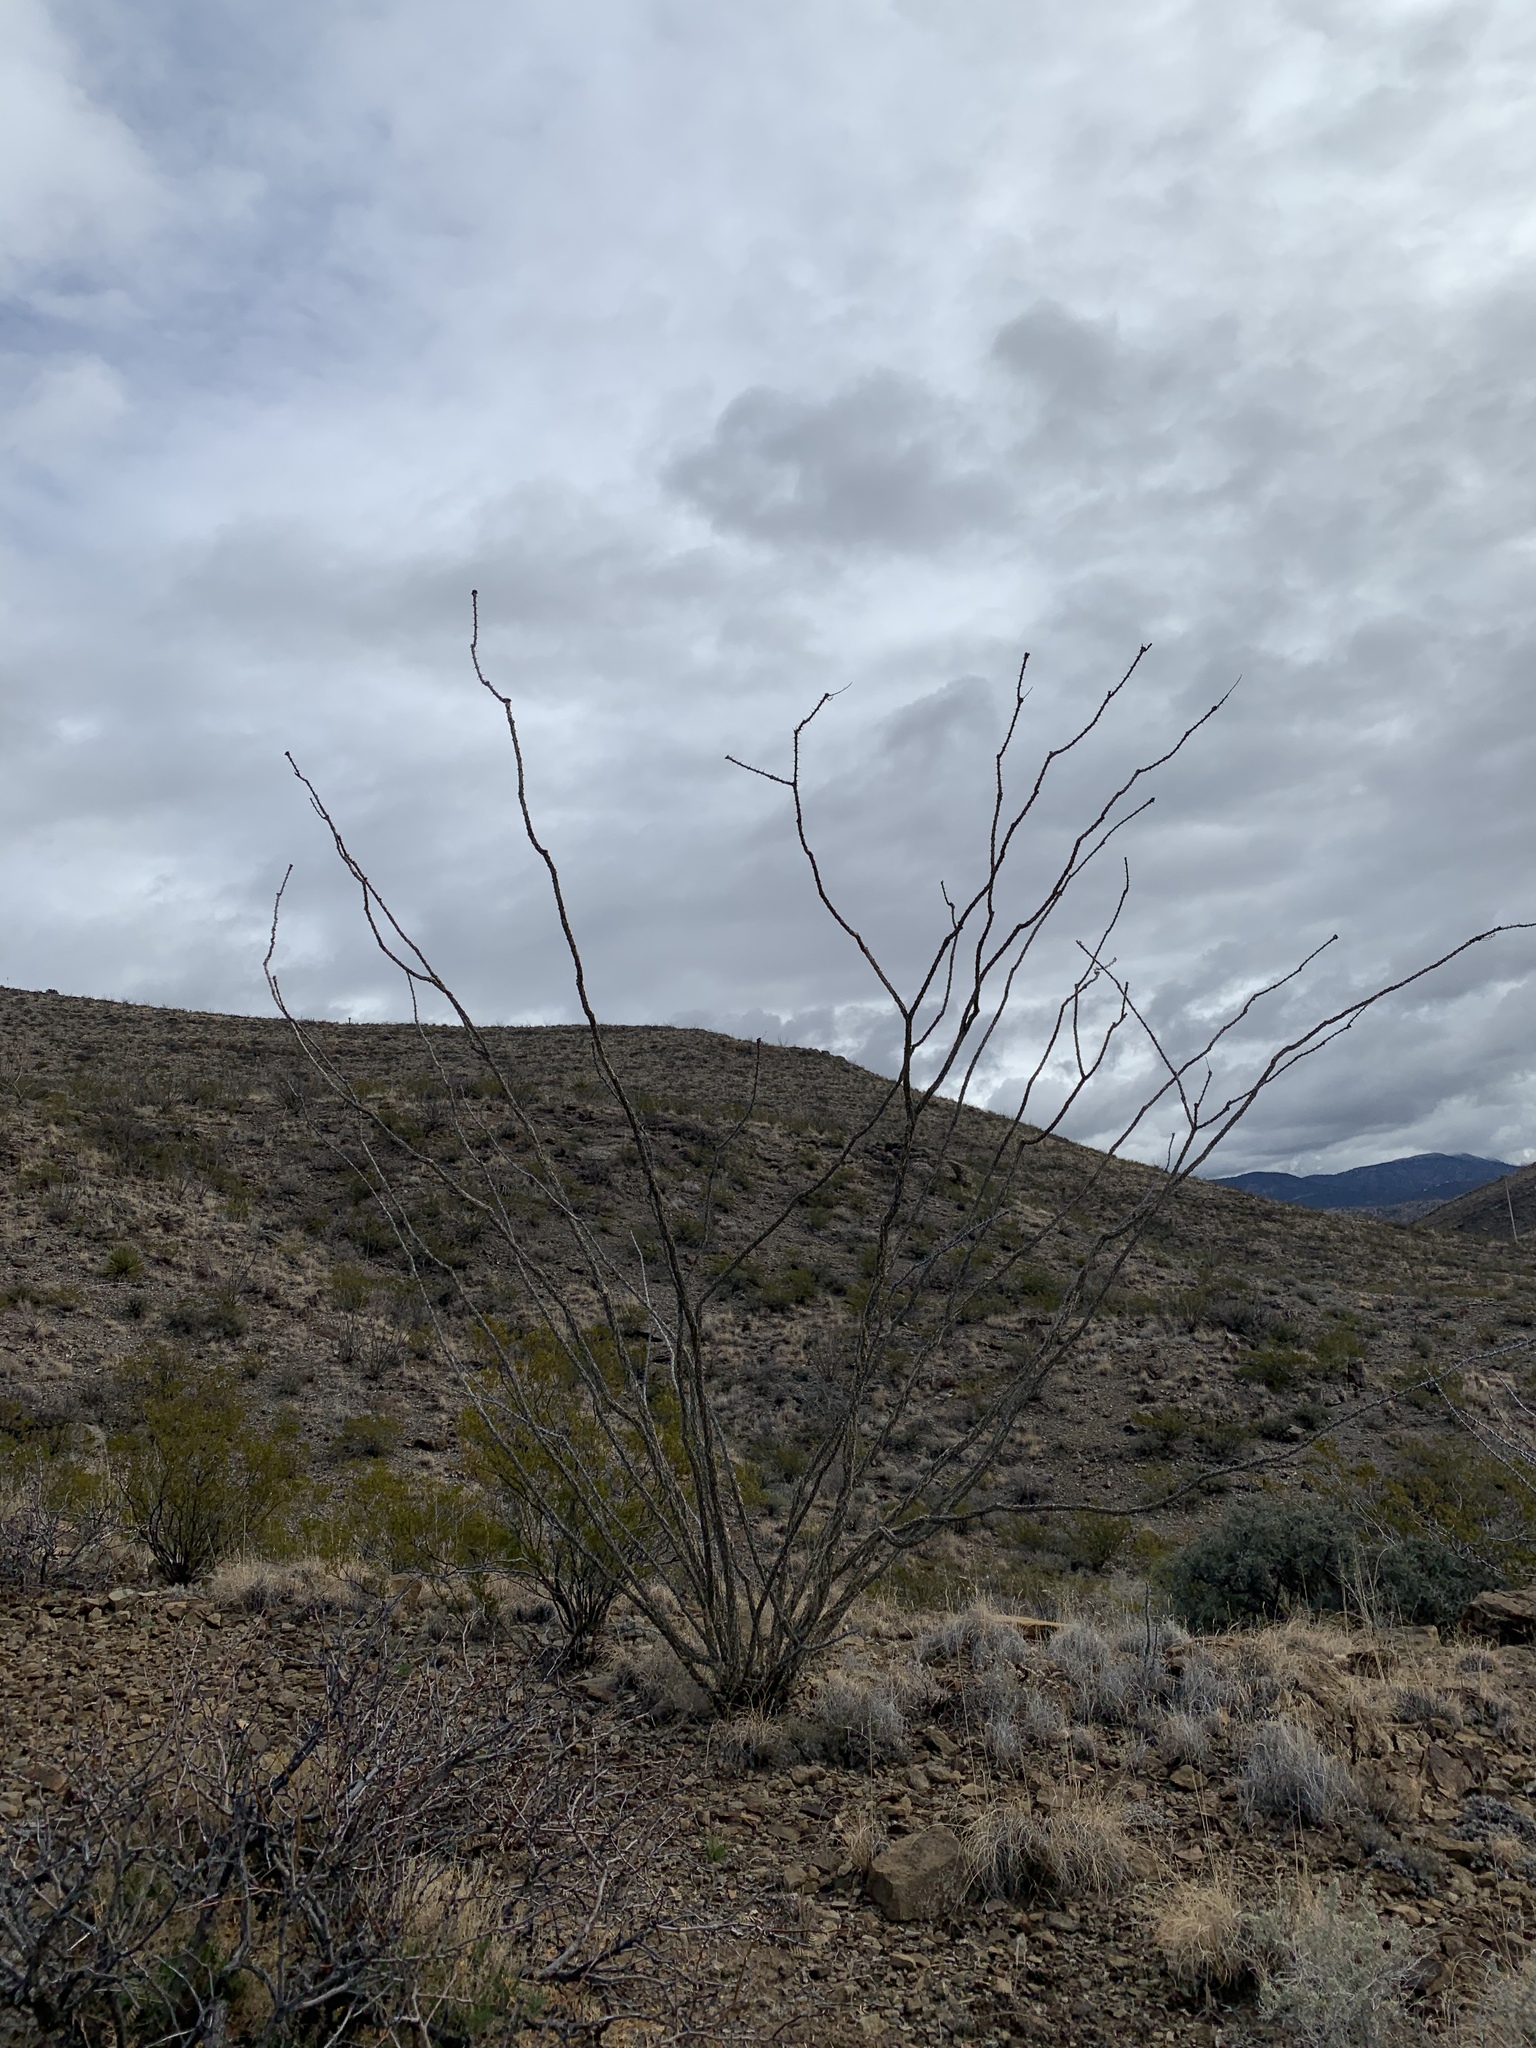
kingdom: Plantae
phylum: Tracheophyta
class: Magnoliopsida
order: Ericales
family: Fouquieriaceae
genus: Fouquieria
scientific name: Fouquieria splendens
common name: Vine-cactus
